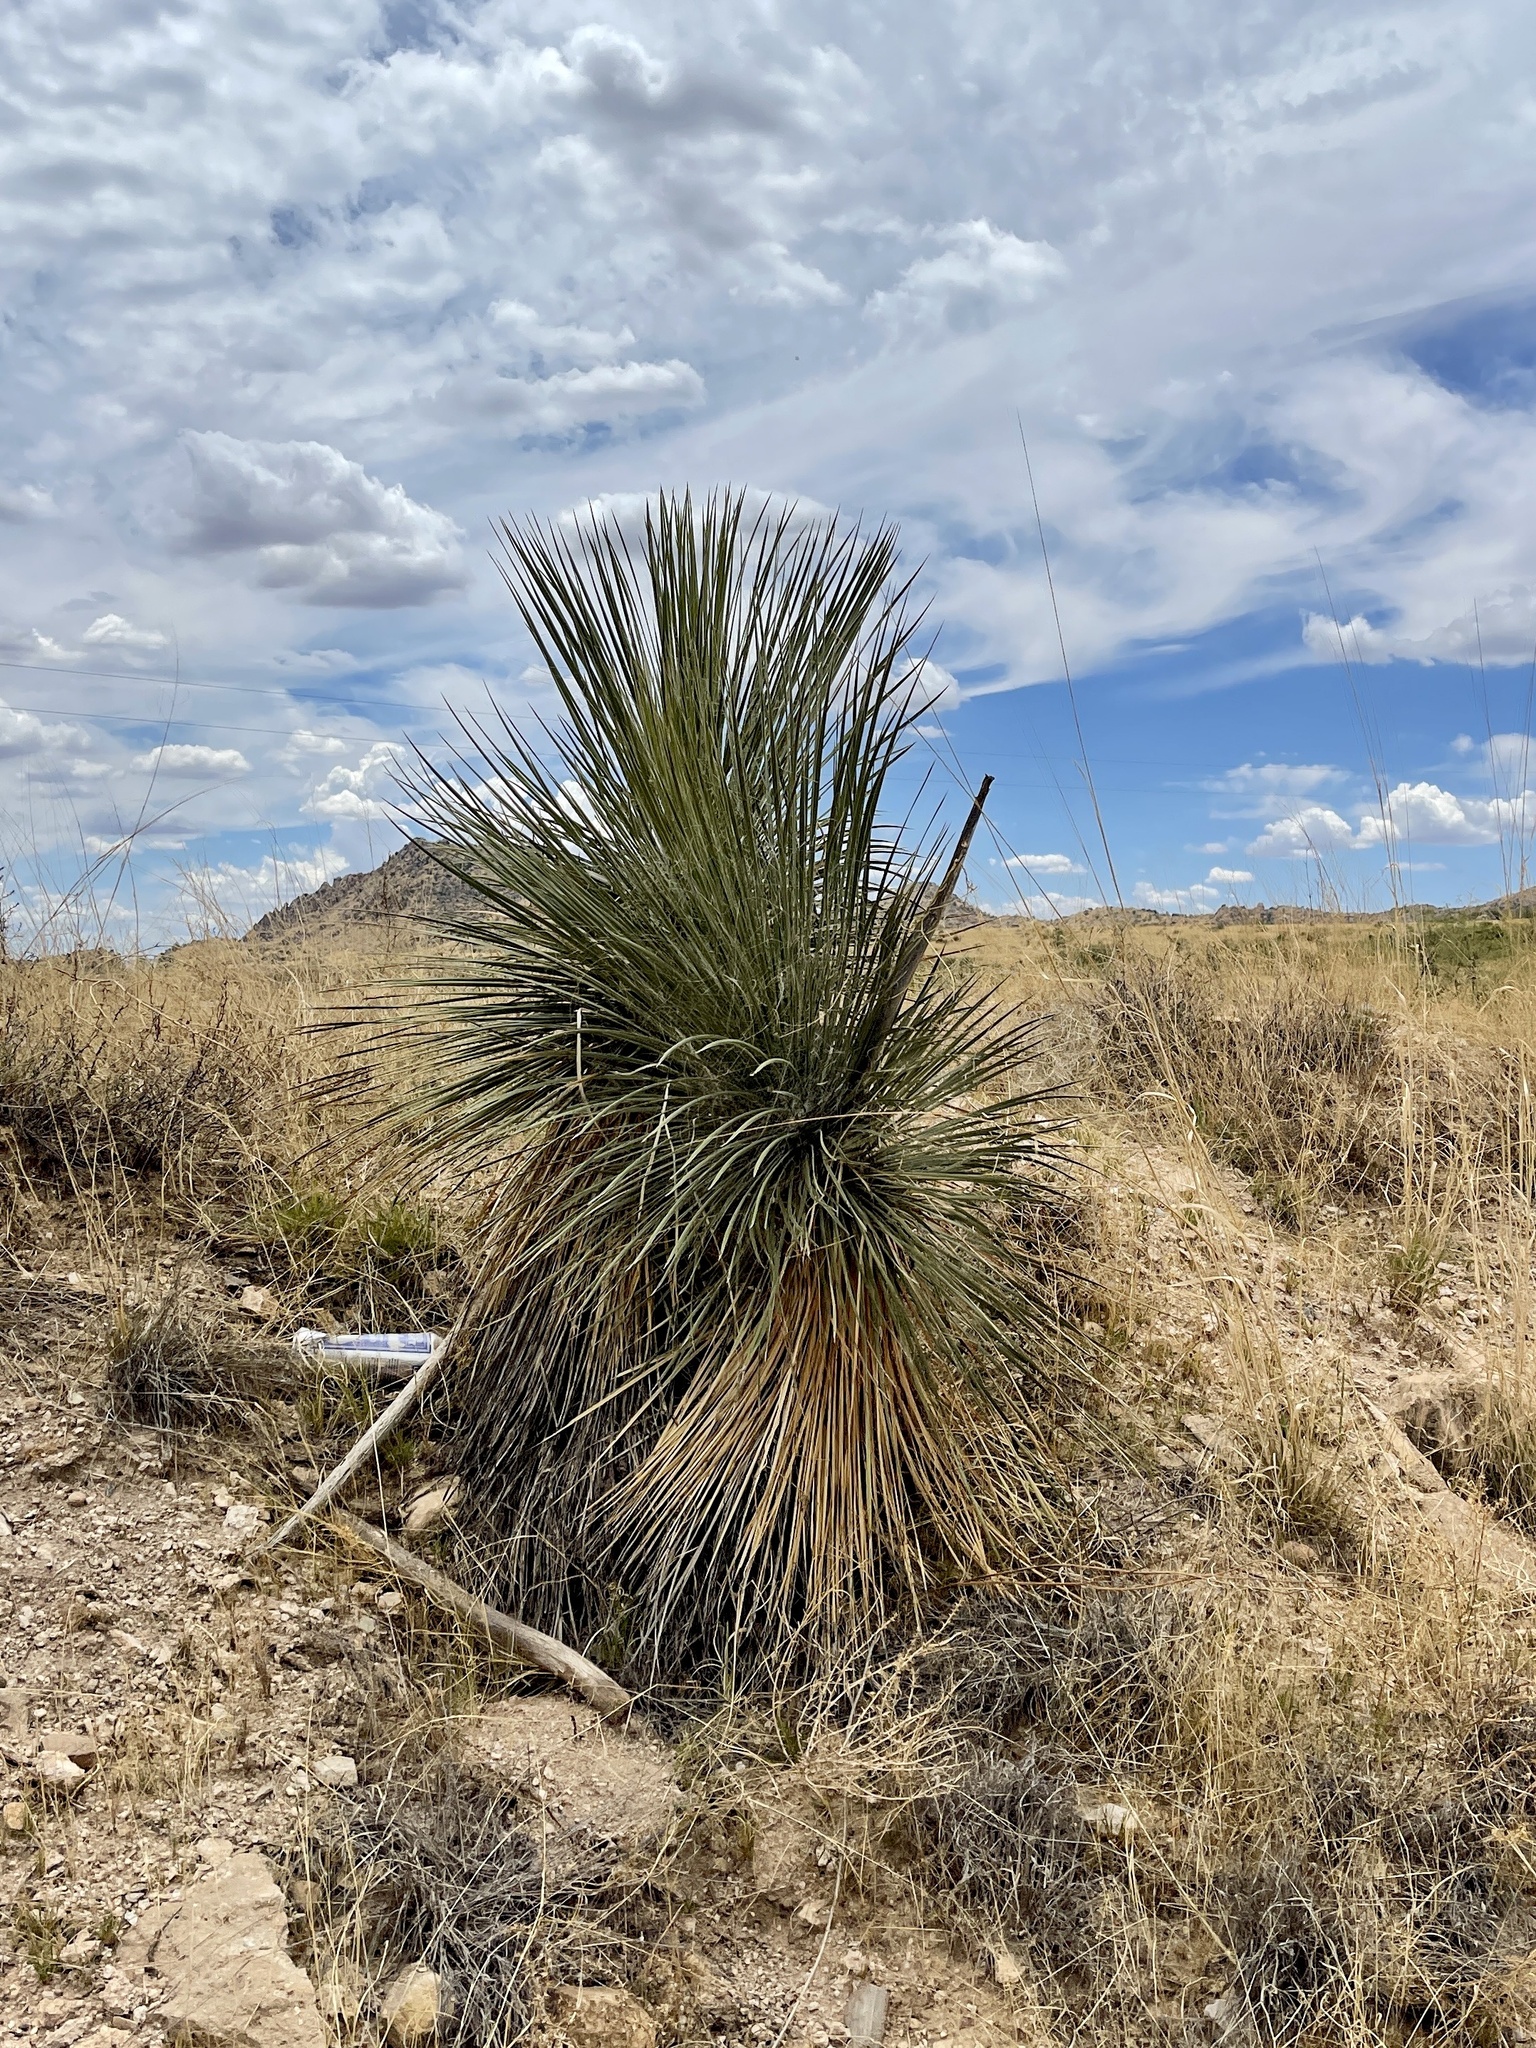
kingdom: Plantae
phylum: Tracheophyta
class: Liliopsida
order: Asparagales
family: Asparagaceae
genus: Yucca
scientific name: Yucca elata
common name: Palmella
